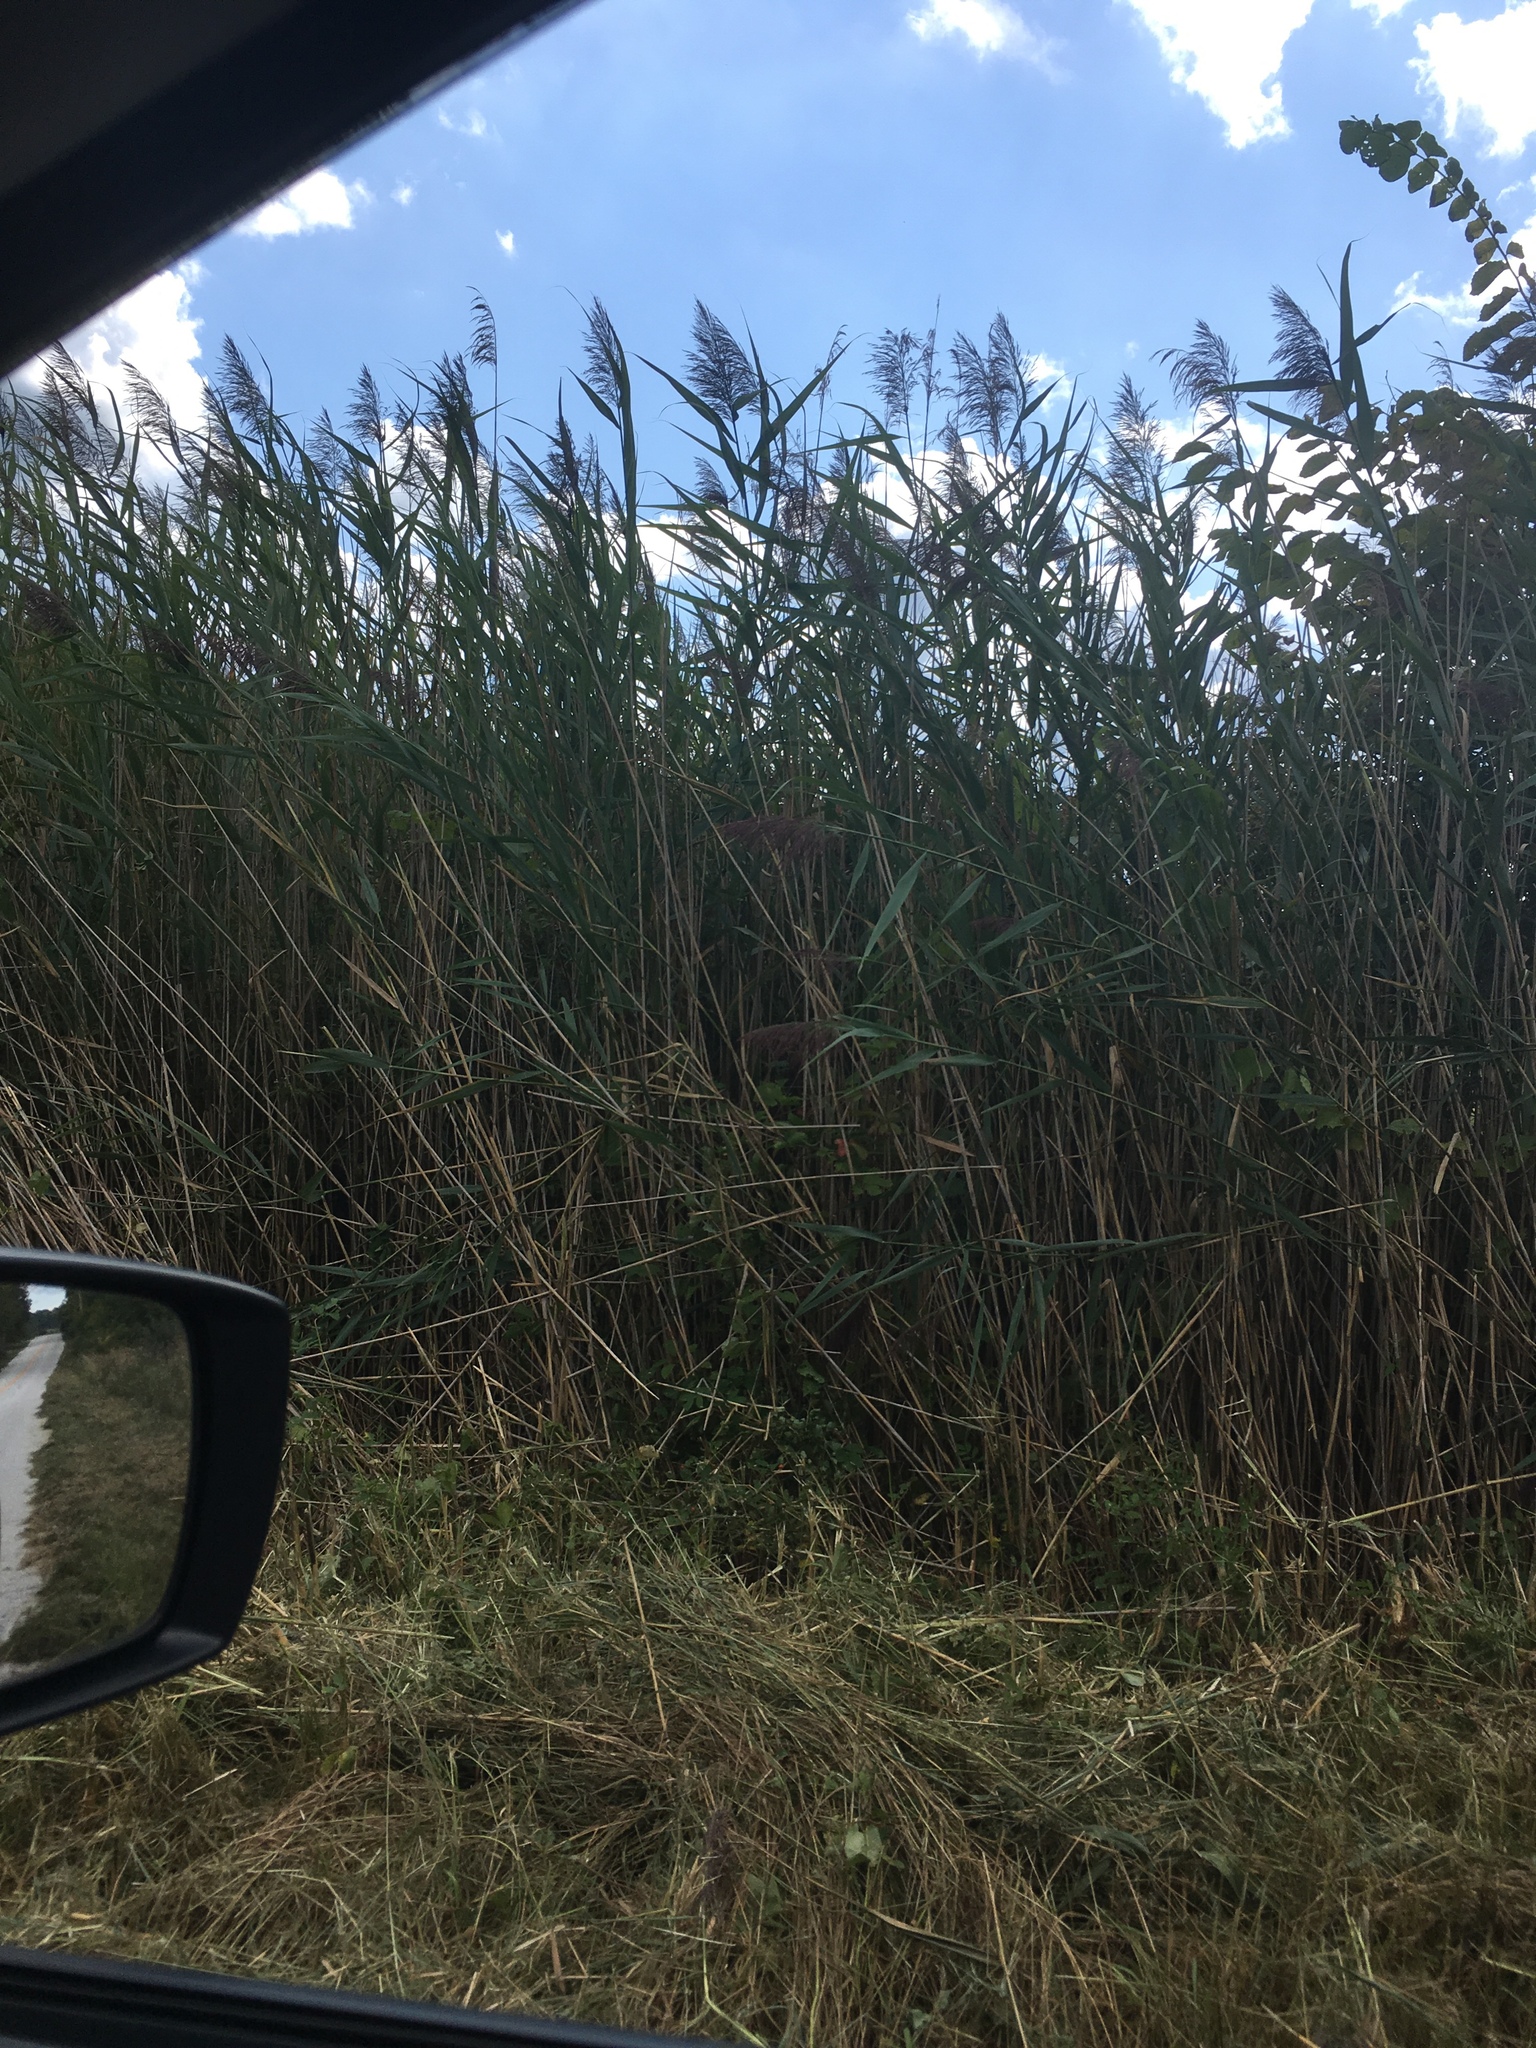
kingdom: Plantae
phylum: Tracheophyta
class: Liliopsida
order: Poales
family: Poaceae
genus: Phragmites
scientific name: Phragmites australis
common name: Common reed
